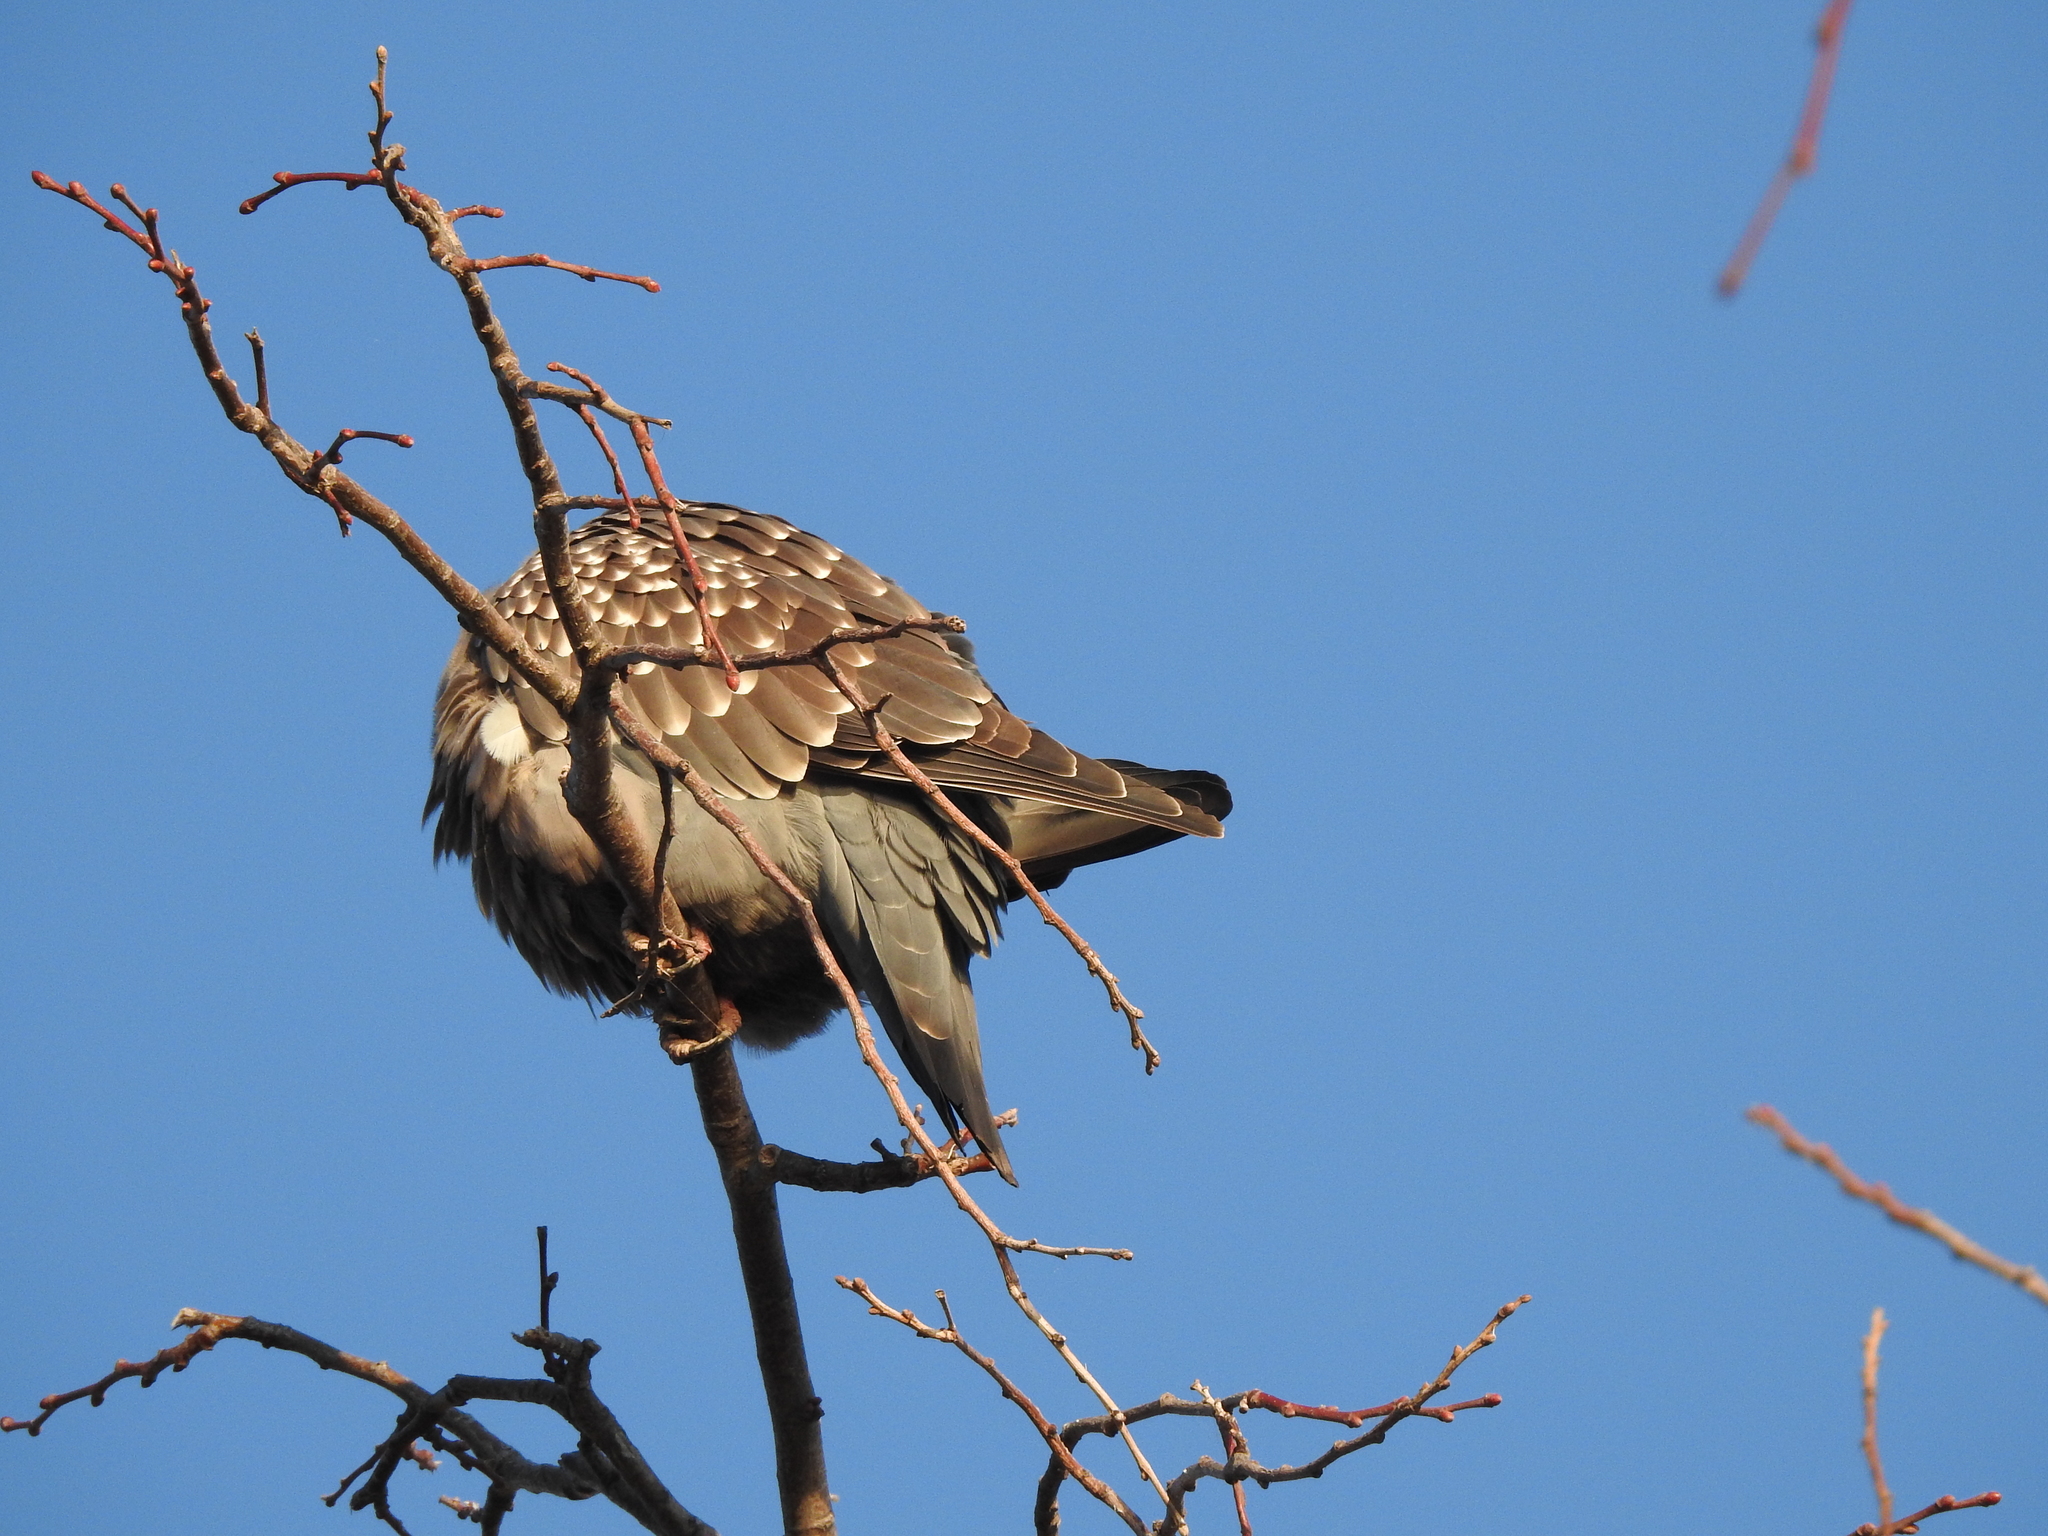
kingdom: Animalia
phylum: Chordata
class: Aves
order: Columbiformes
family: Columbidae
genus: Patagioenas
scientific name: Patagioenas maculosa
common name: Spot-winged pigeon
